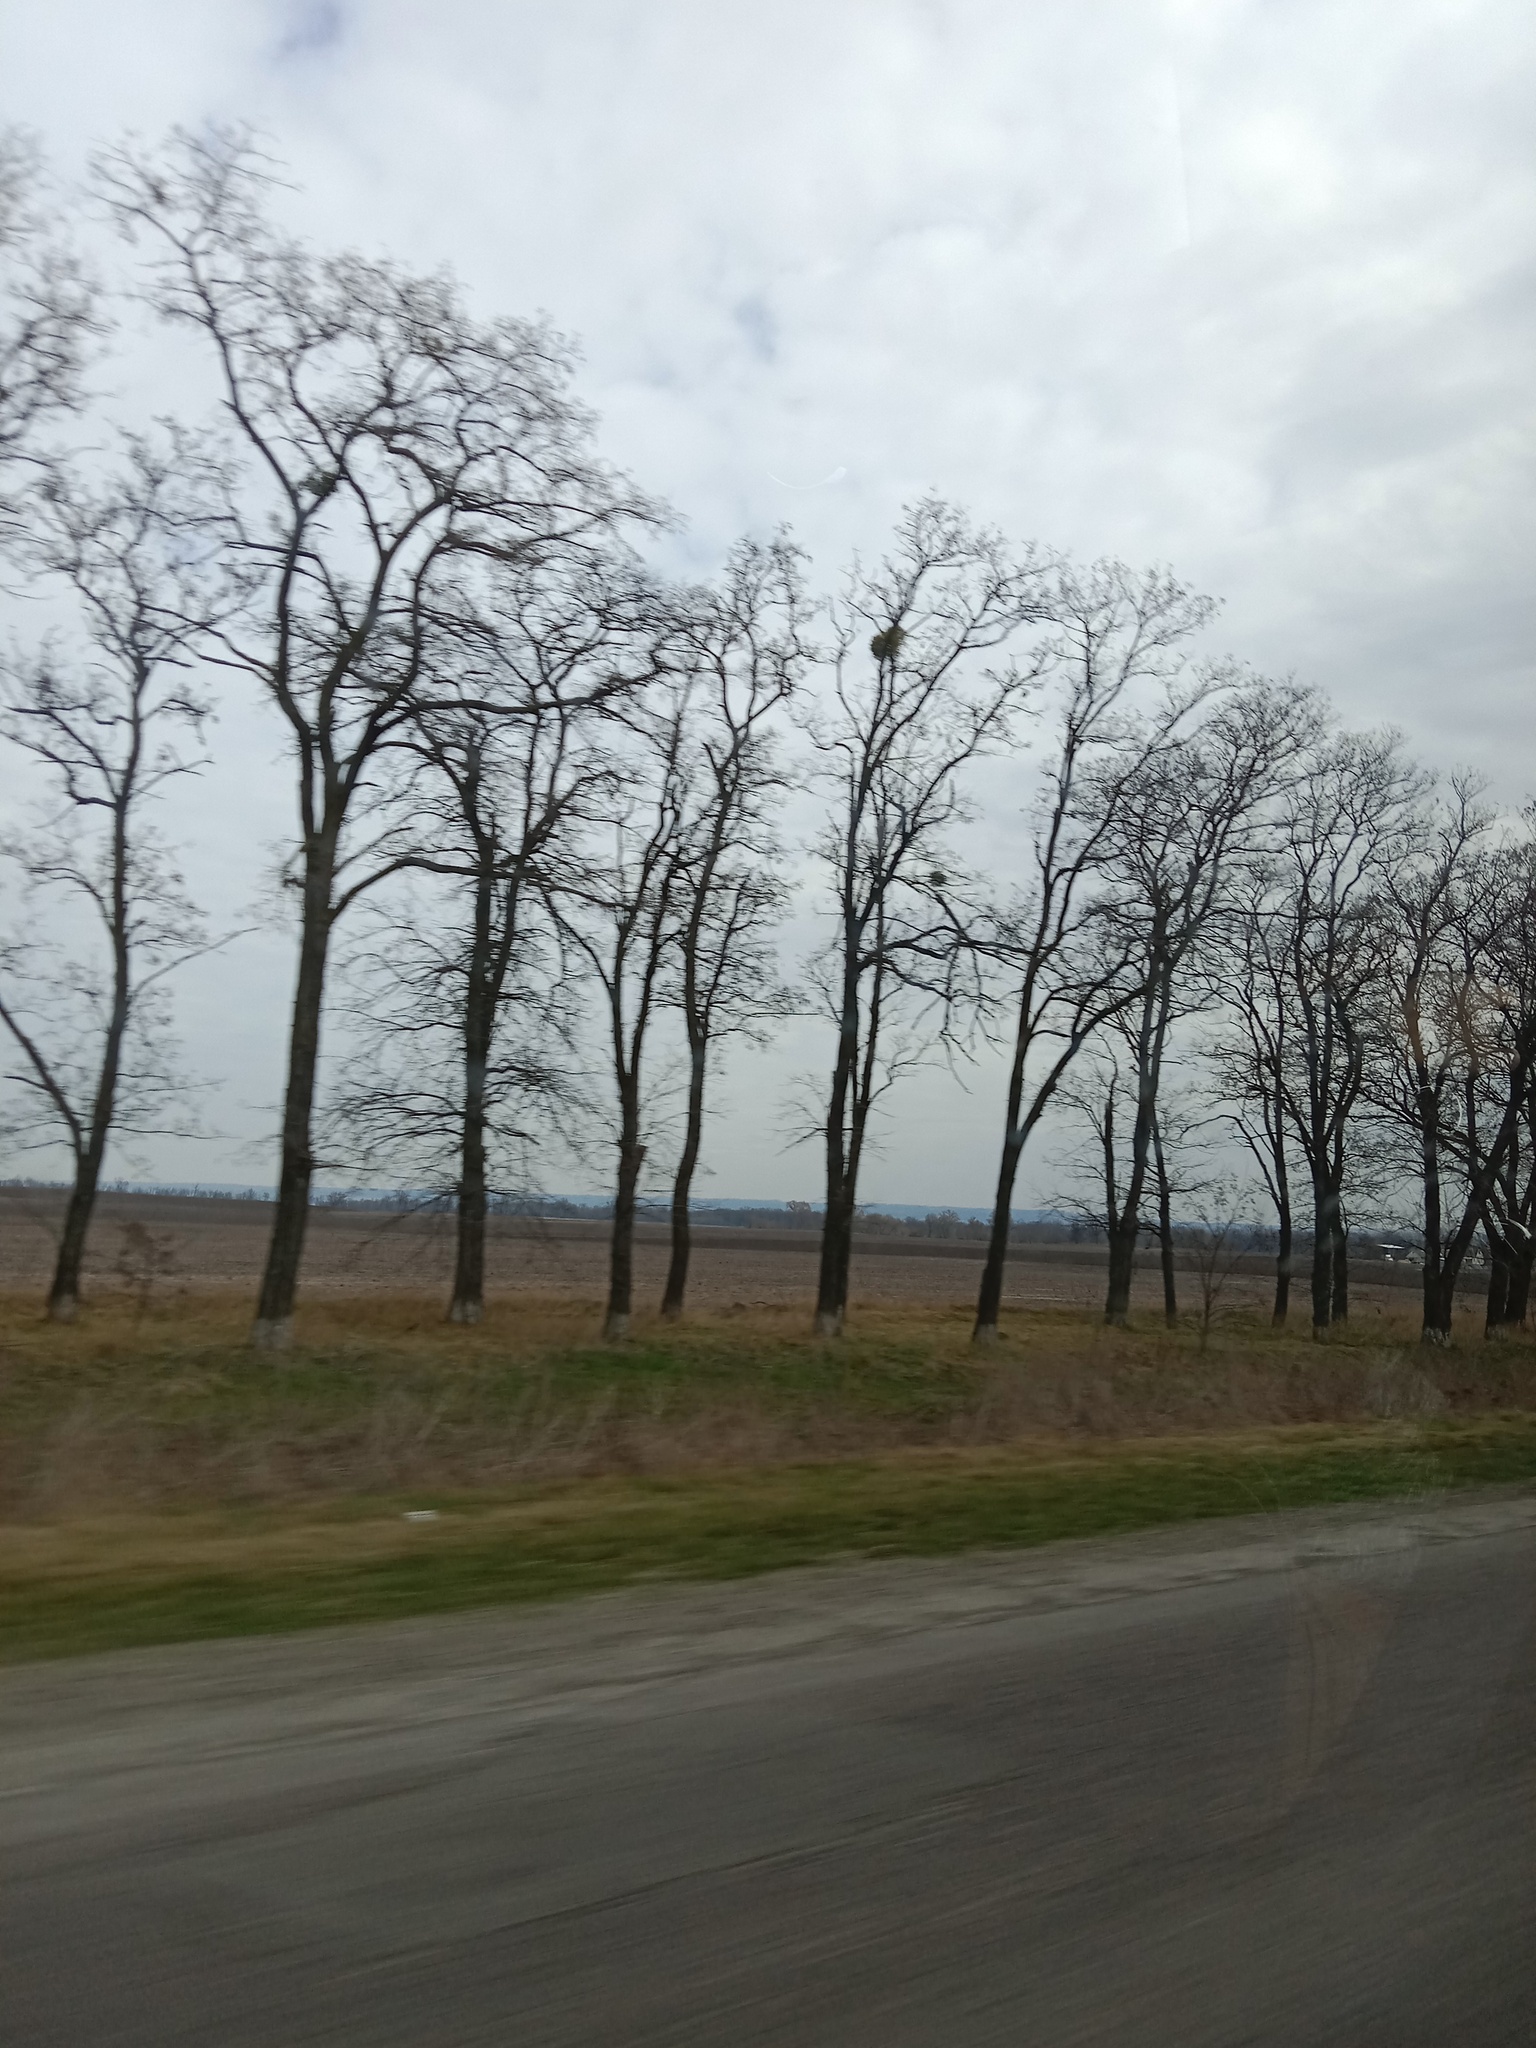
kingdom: Plantae
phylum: Tracheophyta
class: Magnoliopsida
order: Santalales
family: Viscaceae
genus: Viscum
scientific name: Viscum album
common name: Mistletoe
